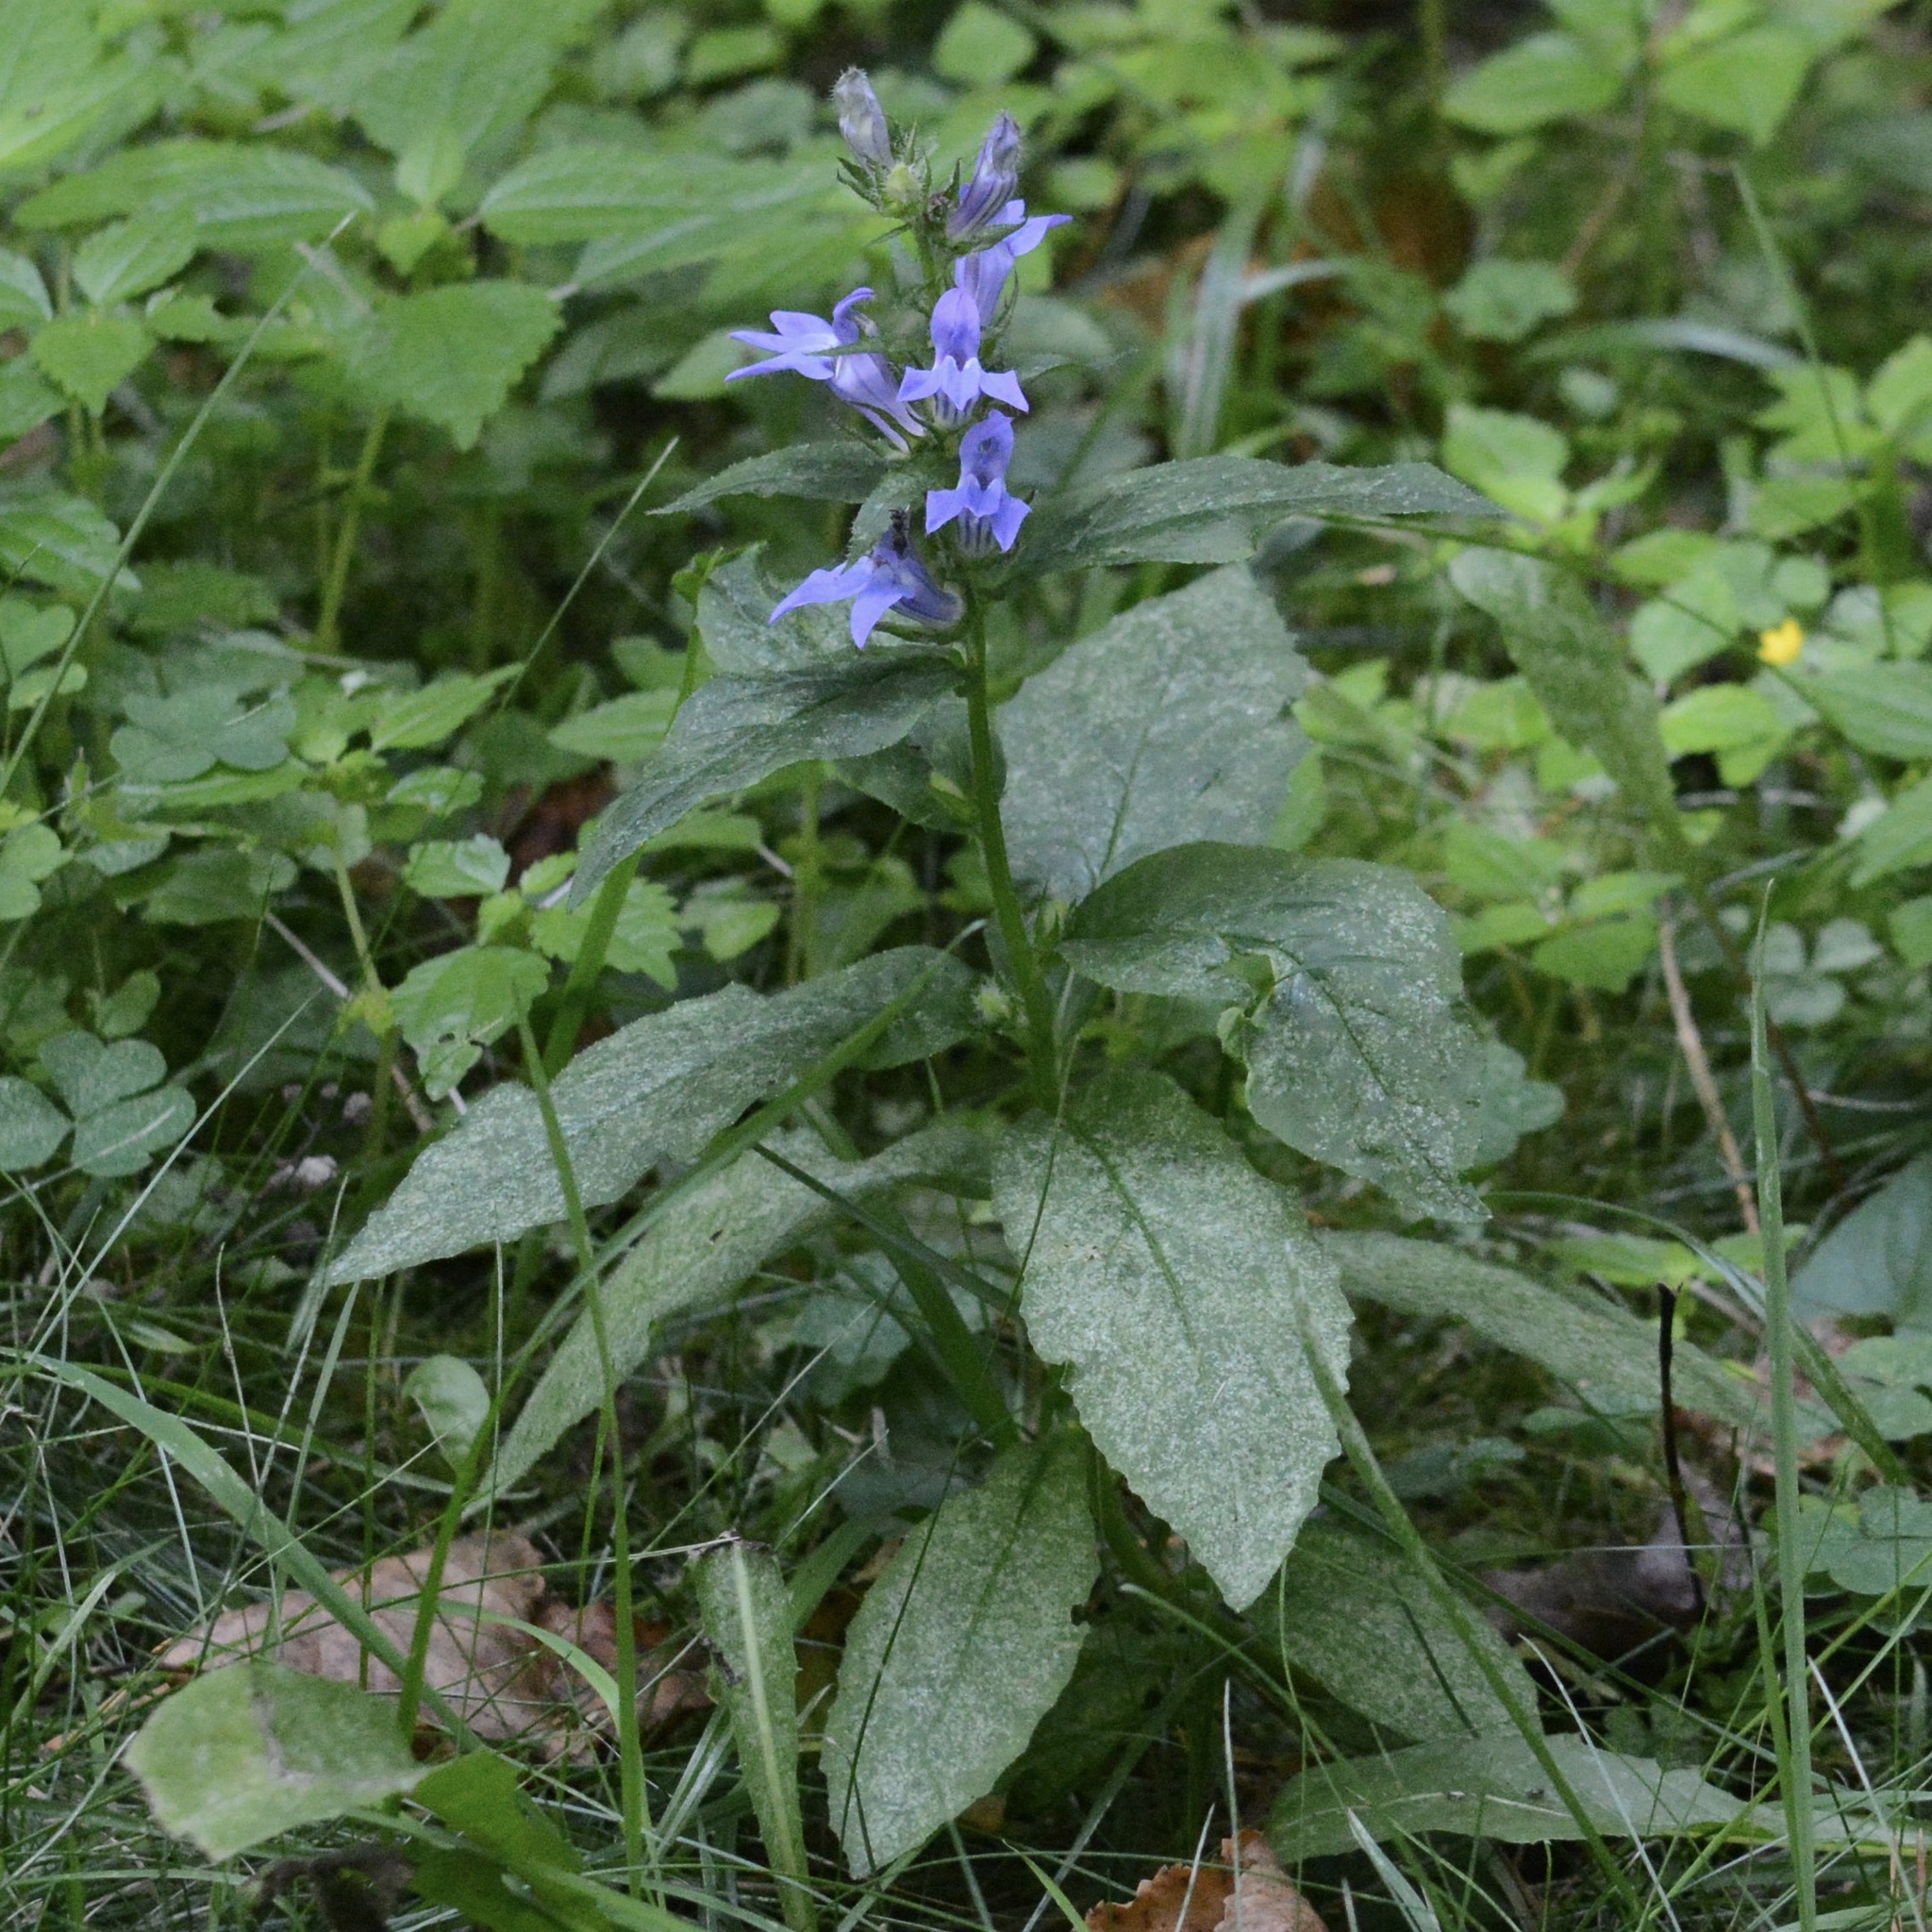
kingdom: Plantae
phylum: Tracheophyta
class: Magnoliopsida
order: Asterales
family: Campanulaceae
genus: Lobelia
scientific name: Lobelia siphilitica
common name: Great lobelia
